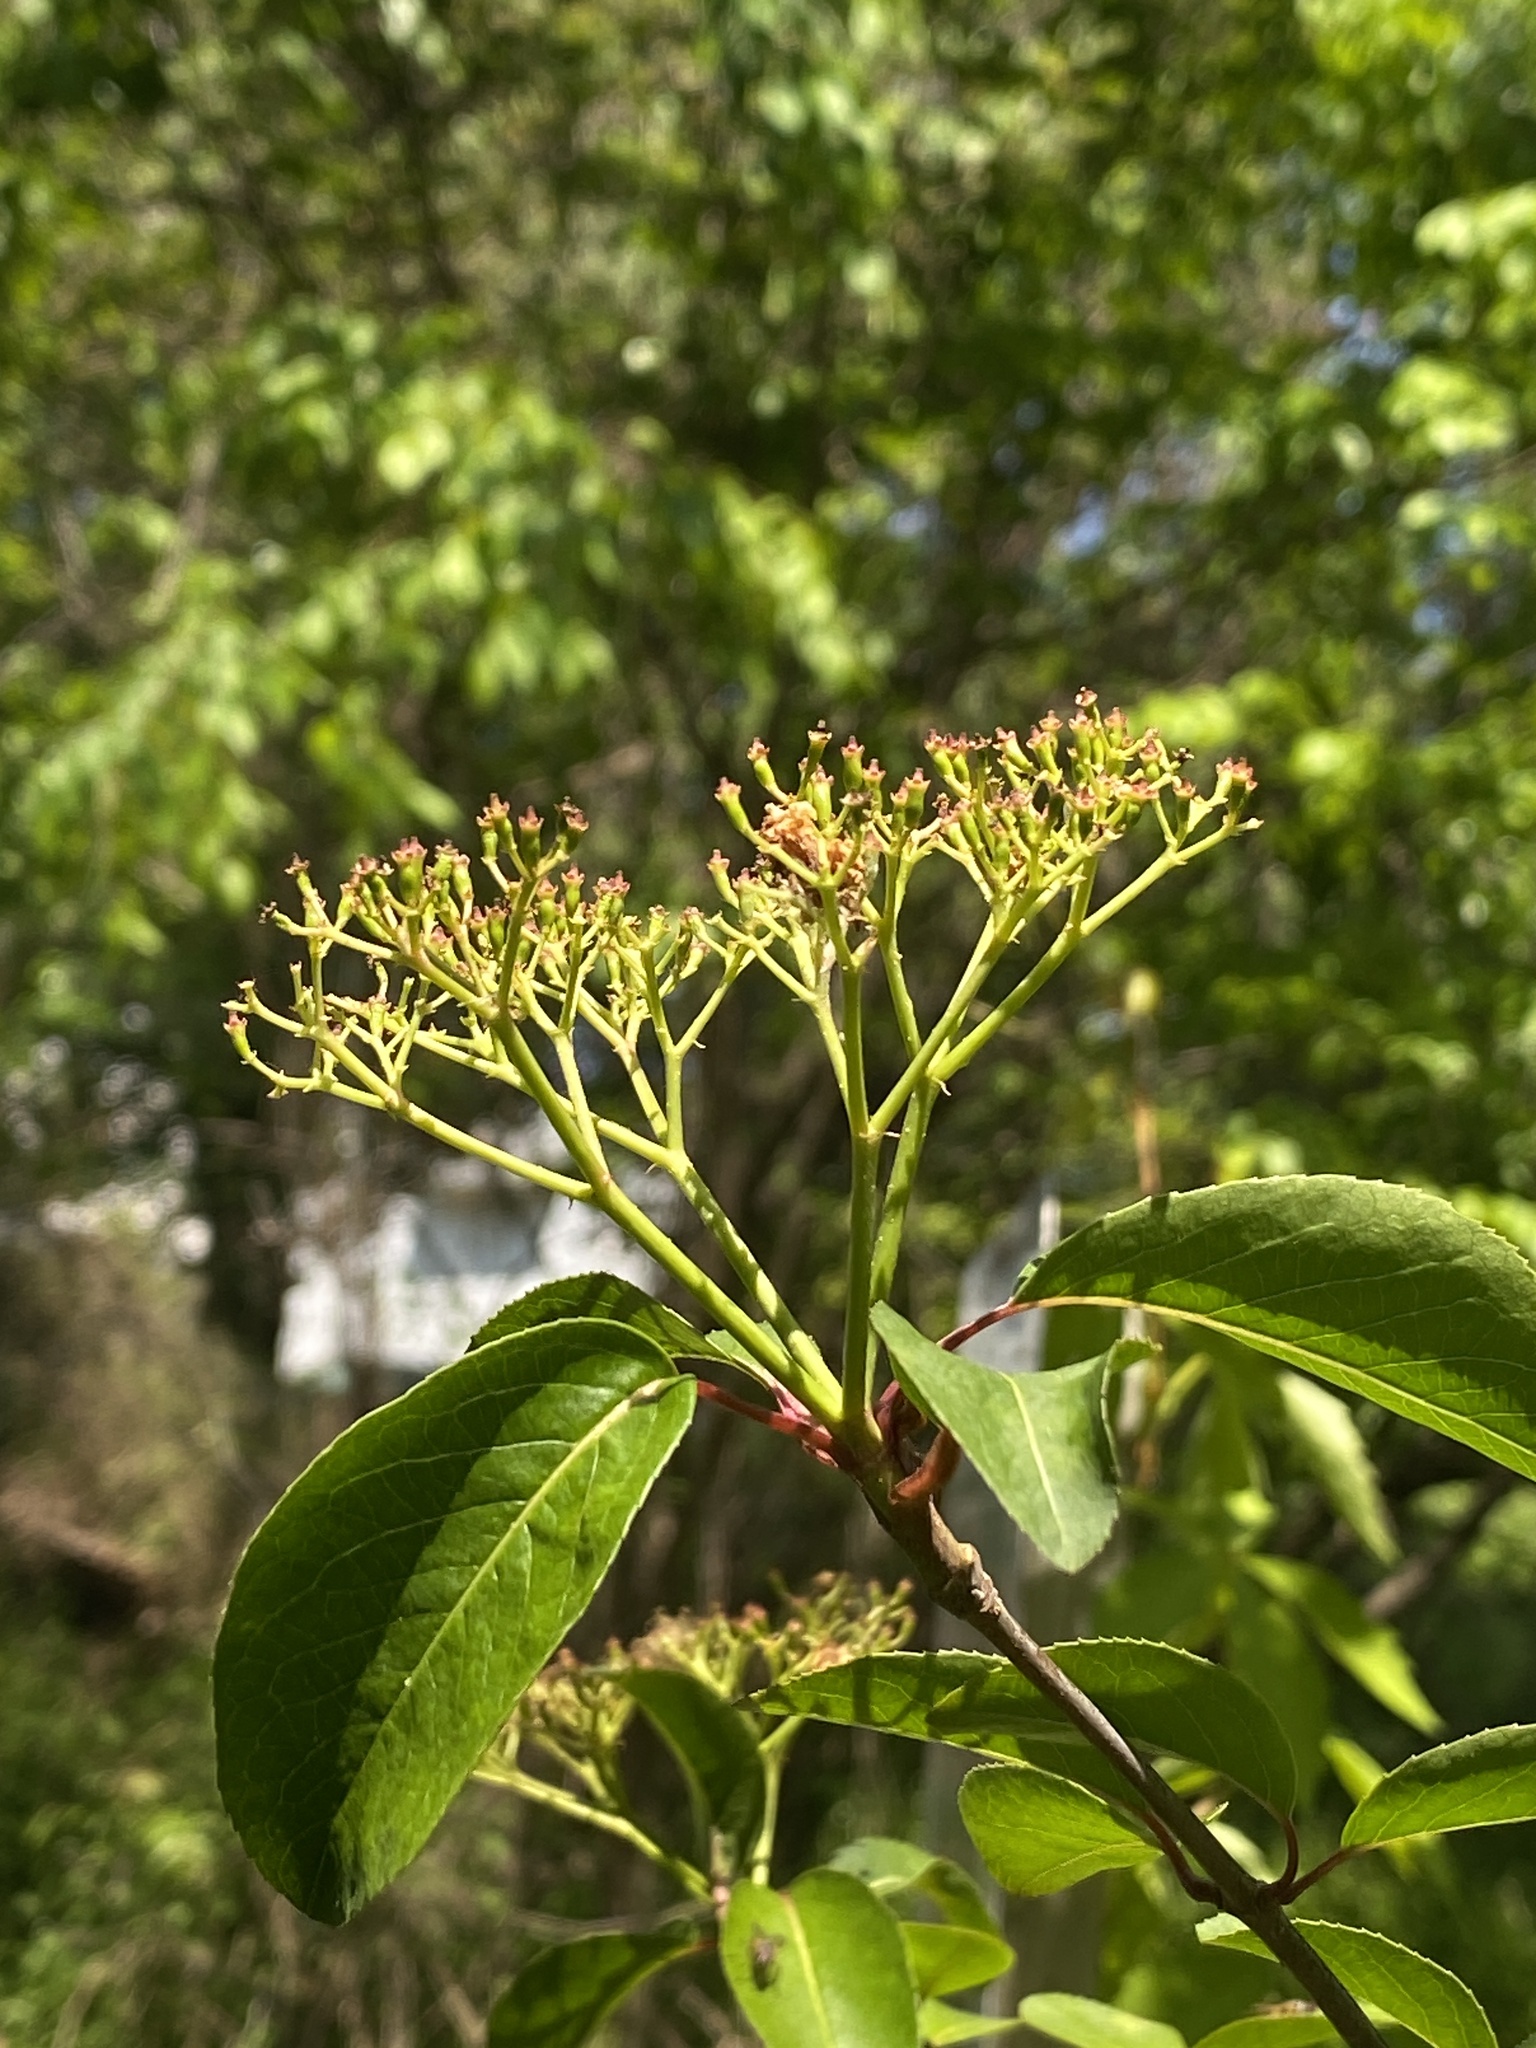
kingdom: Plantae
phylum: Tracheophyta
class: Magnoliopsida
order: Dipsacales
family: Viburnaceae
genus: Viburnum
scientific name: Viburnum prunifolium
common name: Black haw
